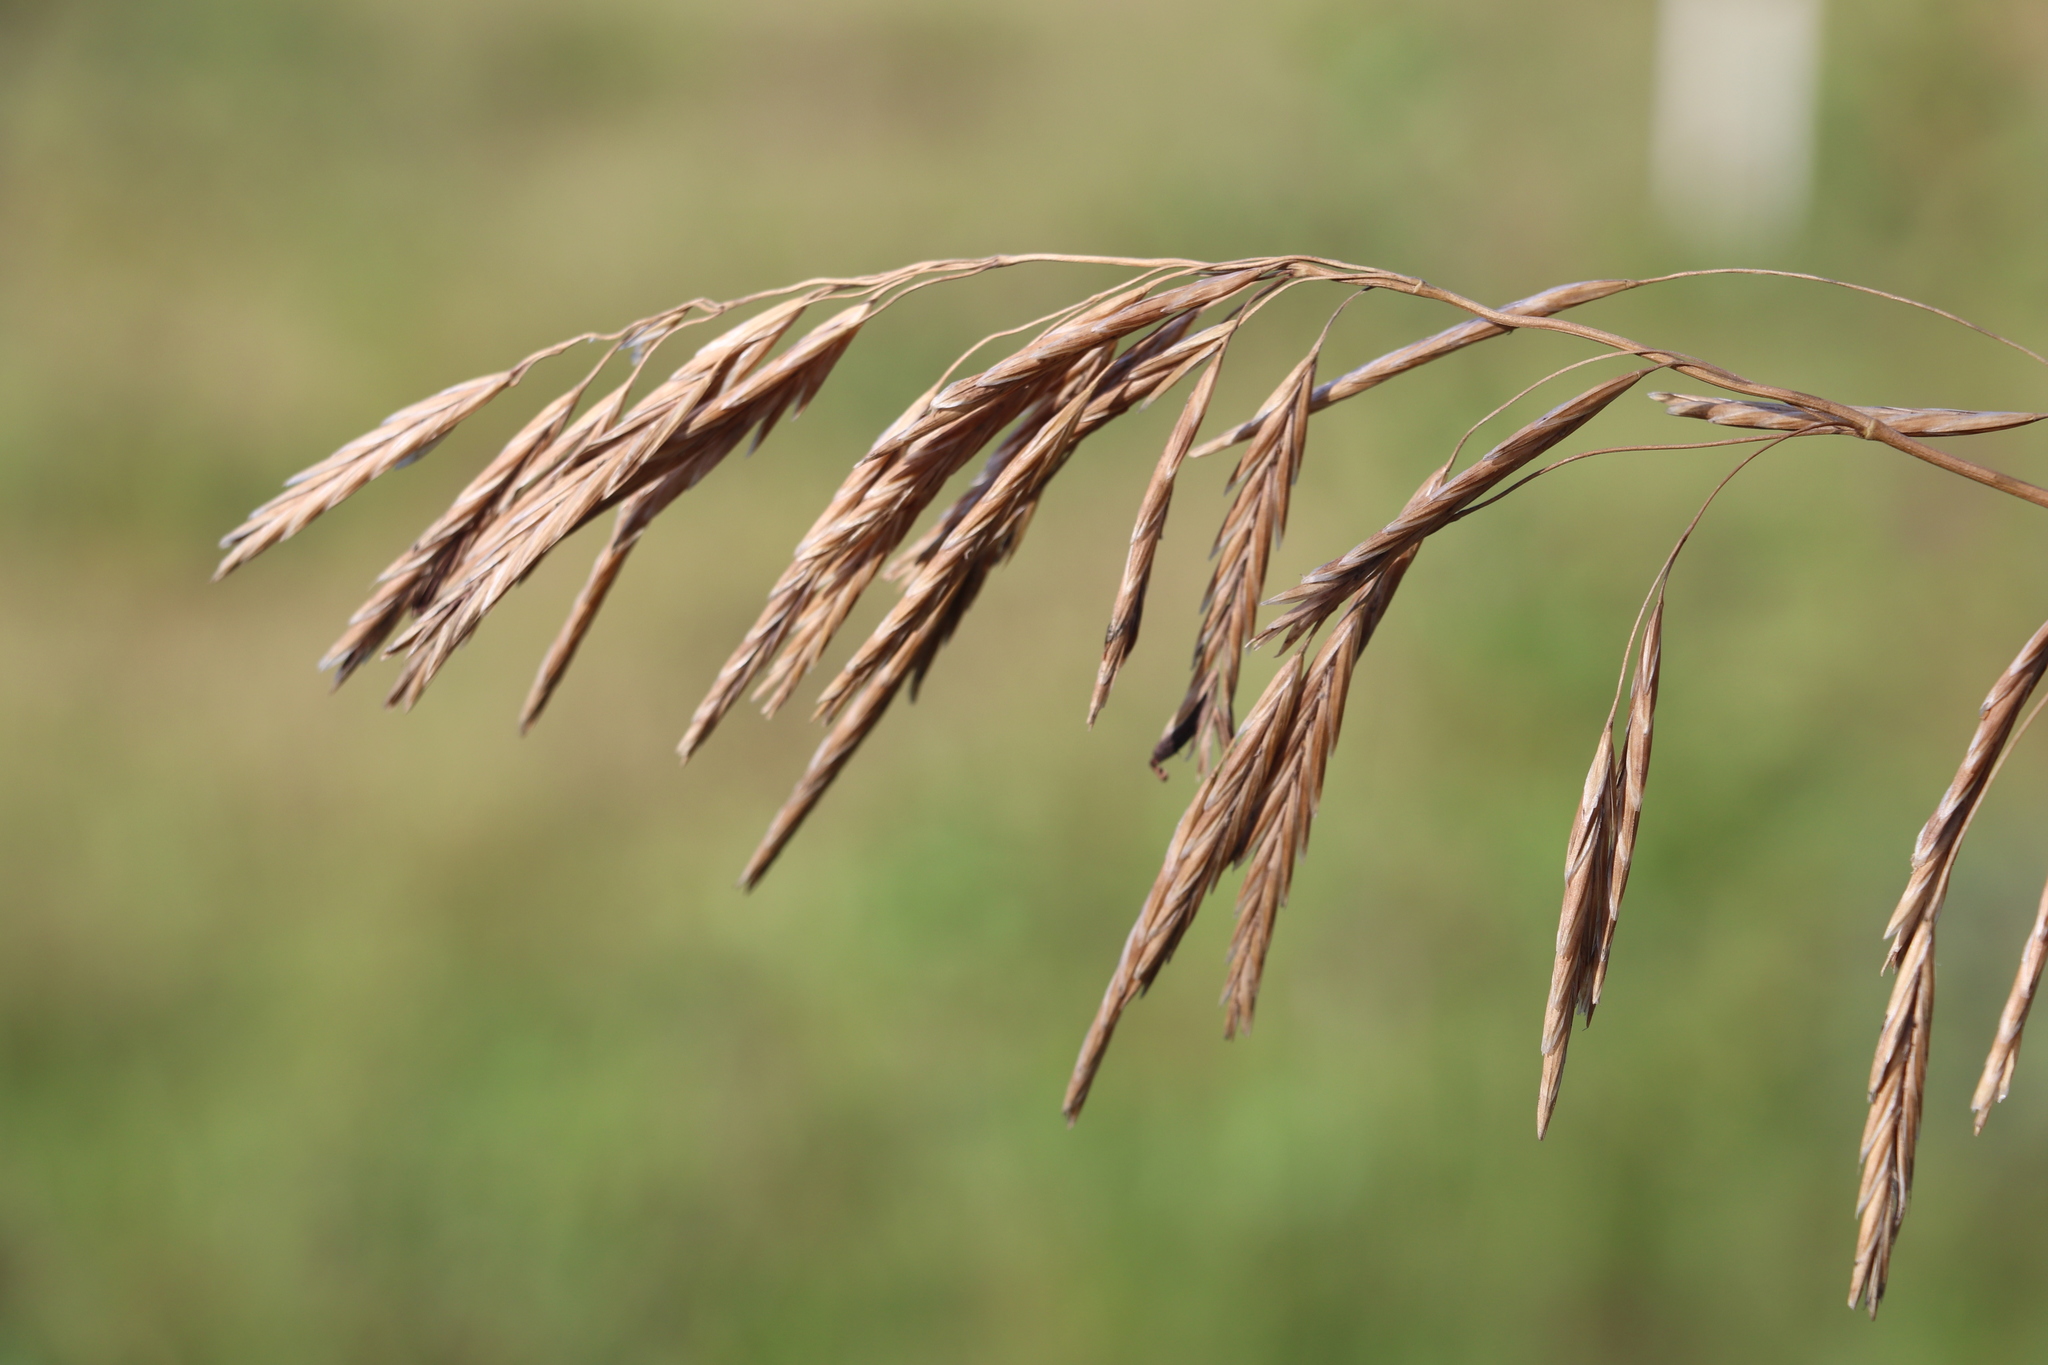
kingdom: Plantae
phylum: Tracheophyta
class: Liliopsida
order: Poales
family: Poaceae
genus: Bromus
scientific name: Bromus inermis
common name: Smooth brome
